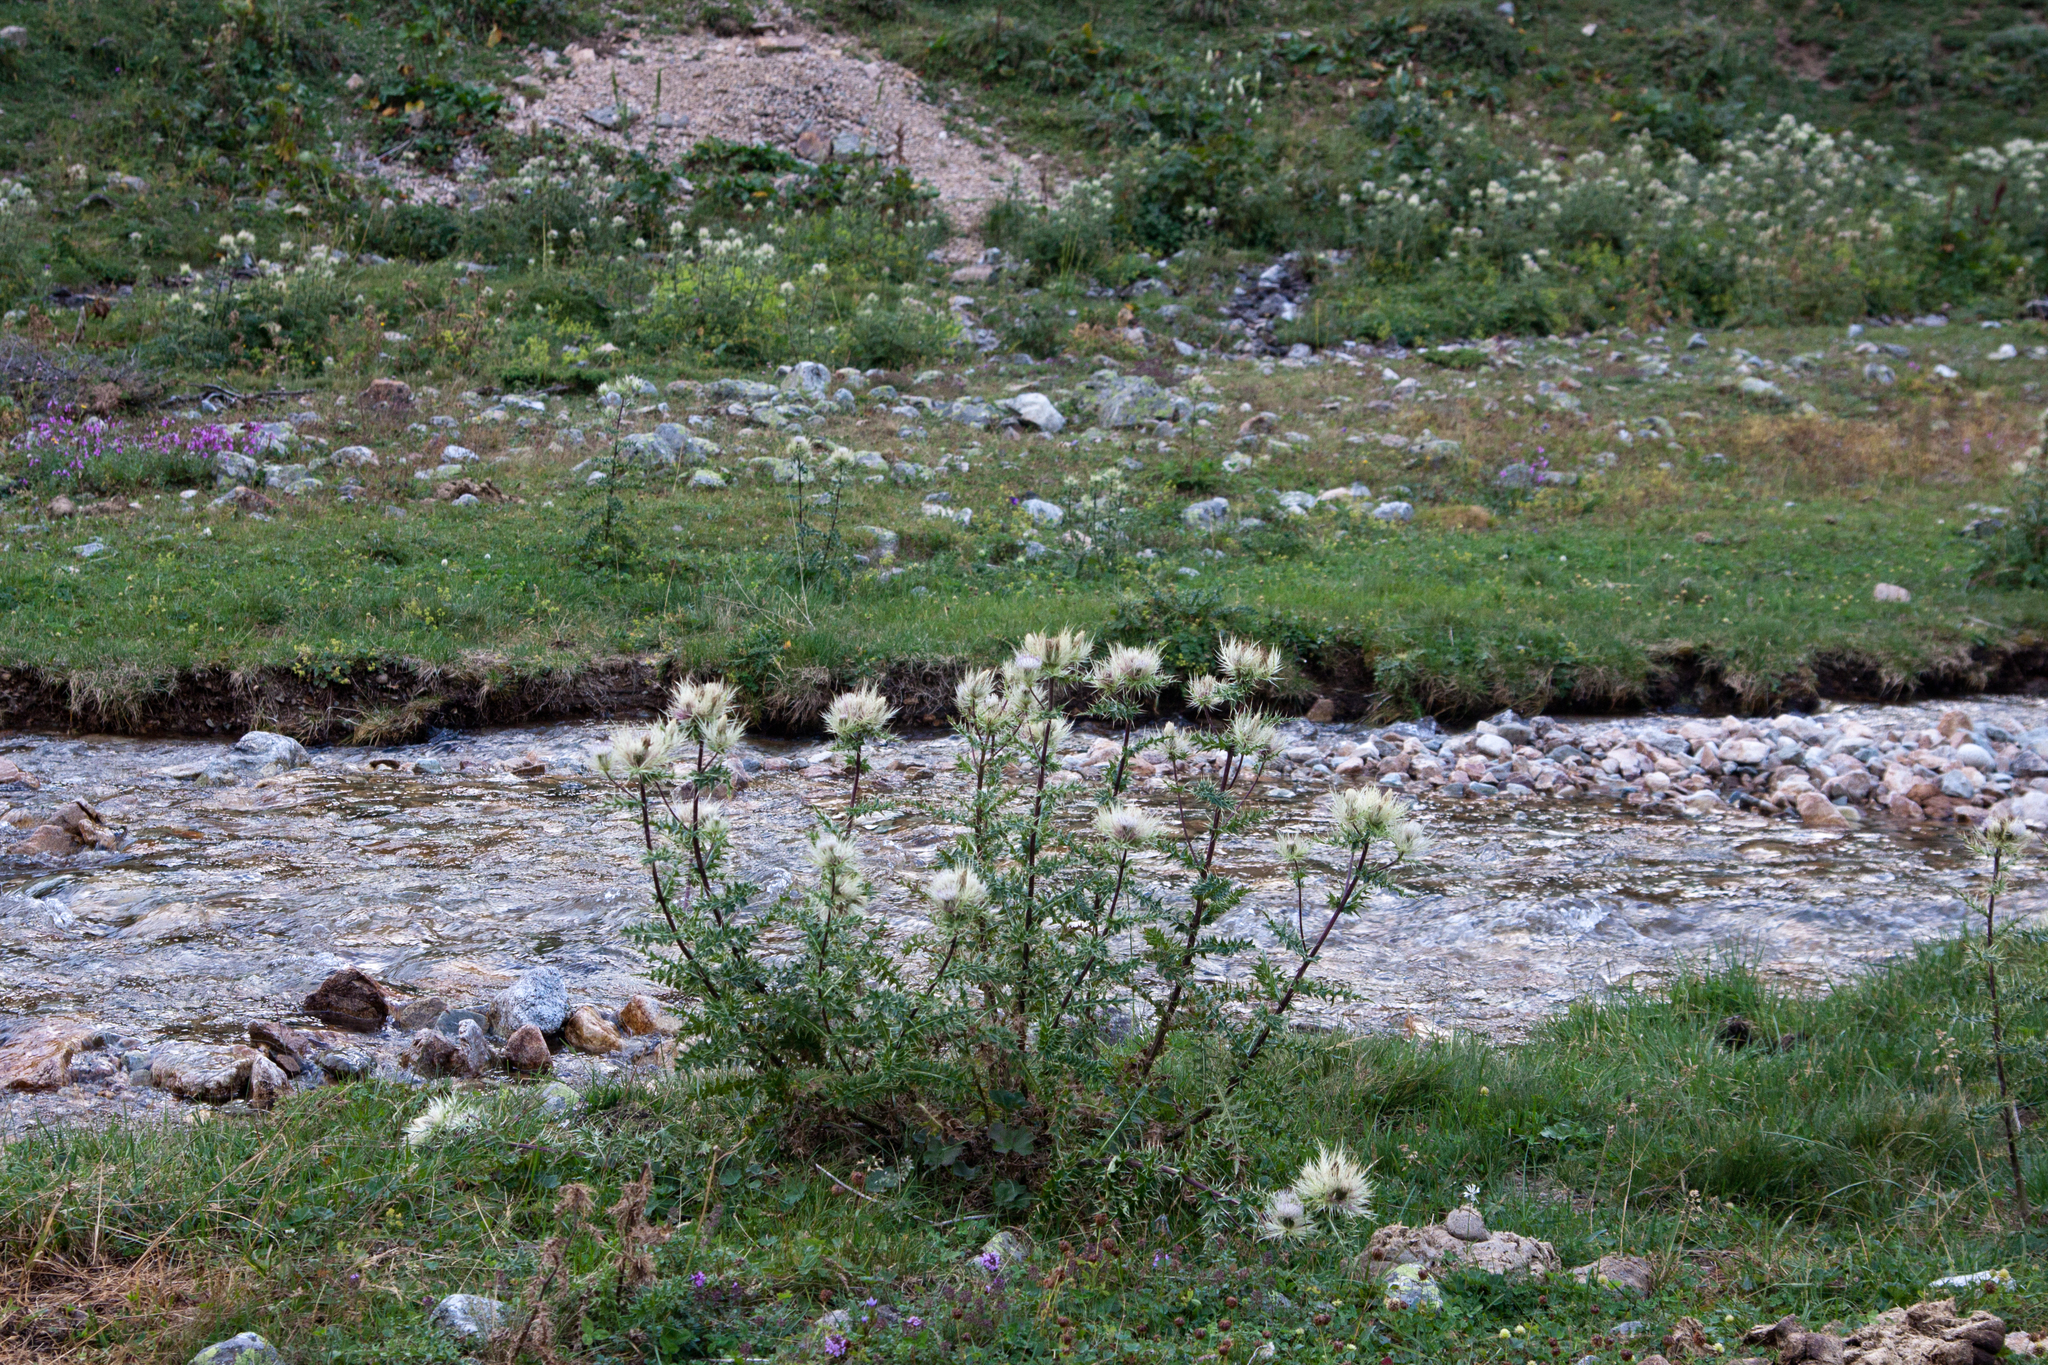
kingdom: Plantae
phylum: Tracheophyta
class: Magnoliopsida
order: Asterales
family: Asteraceae
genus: Cirsium
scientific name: Cirsium obvallatum
